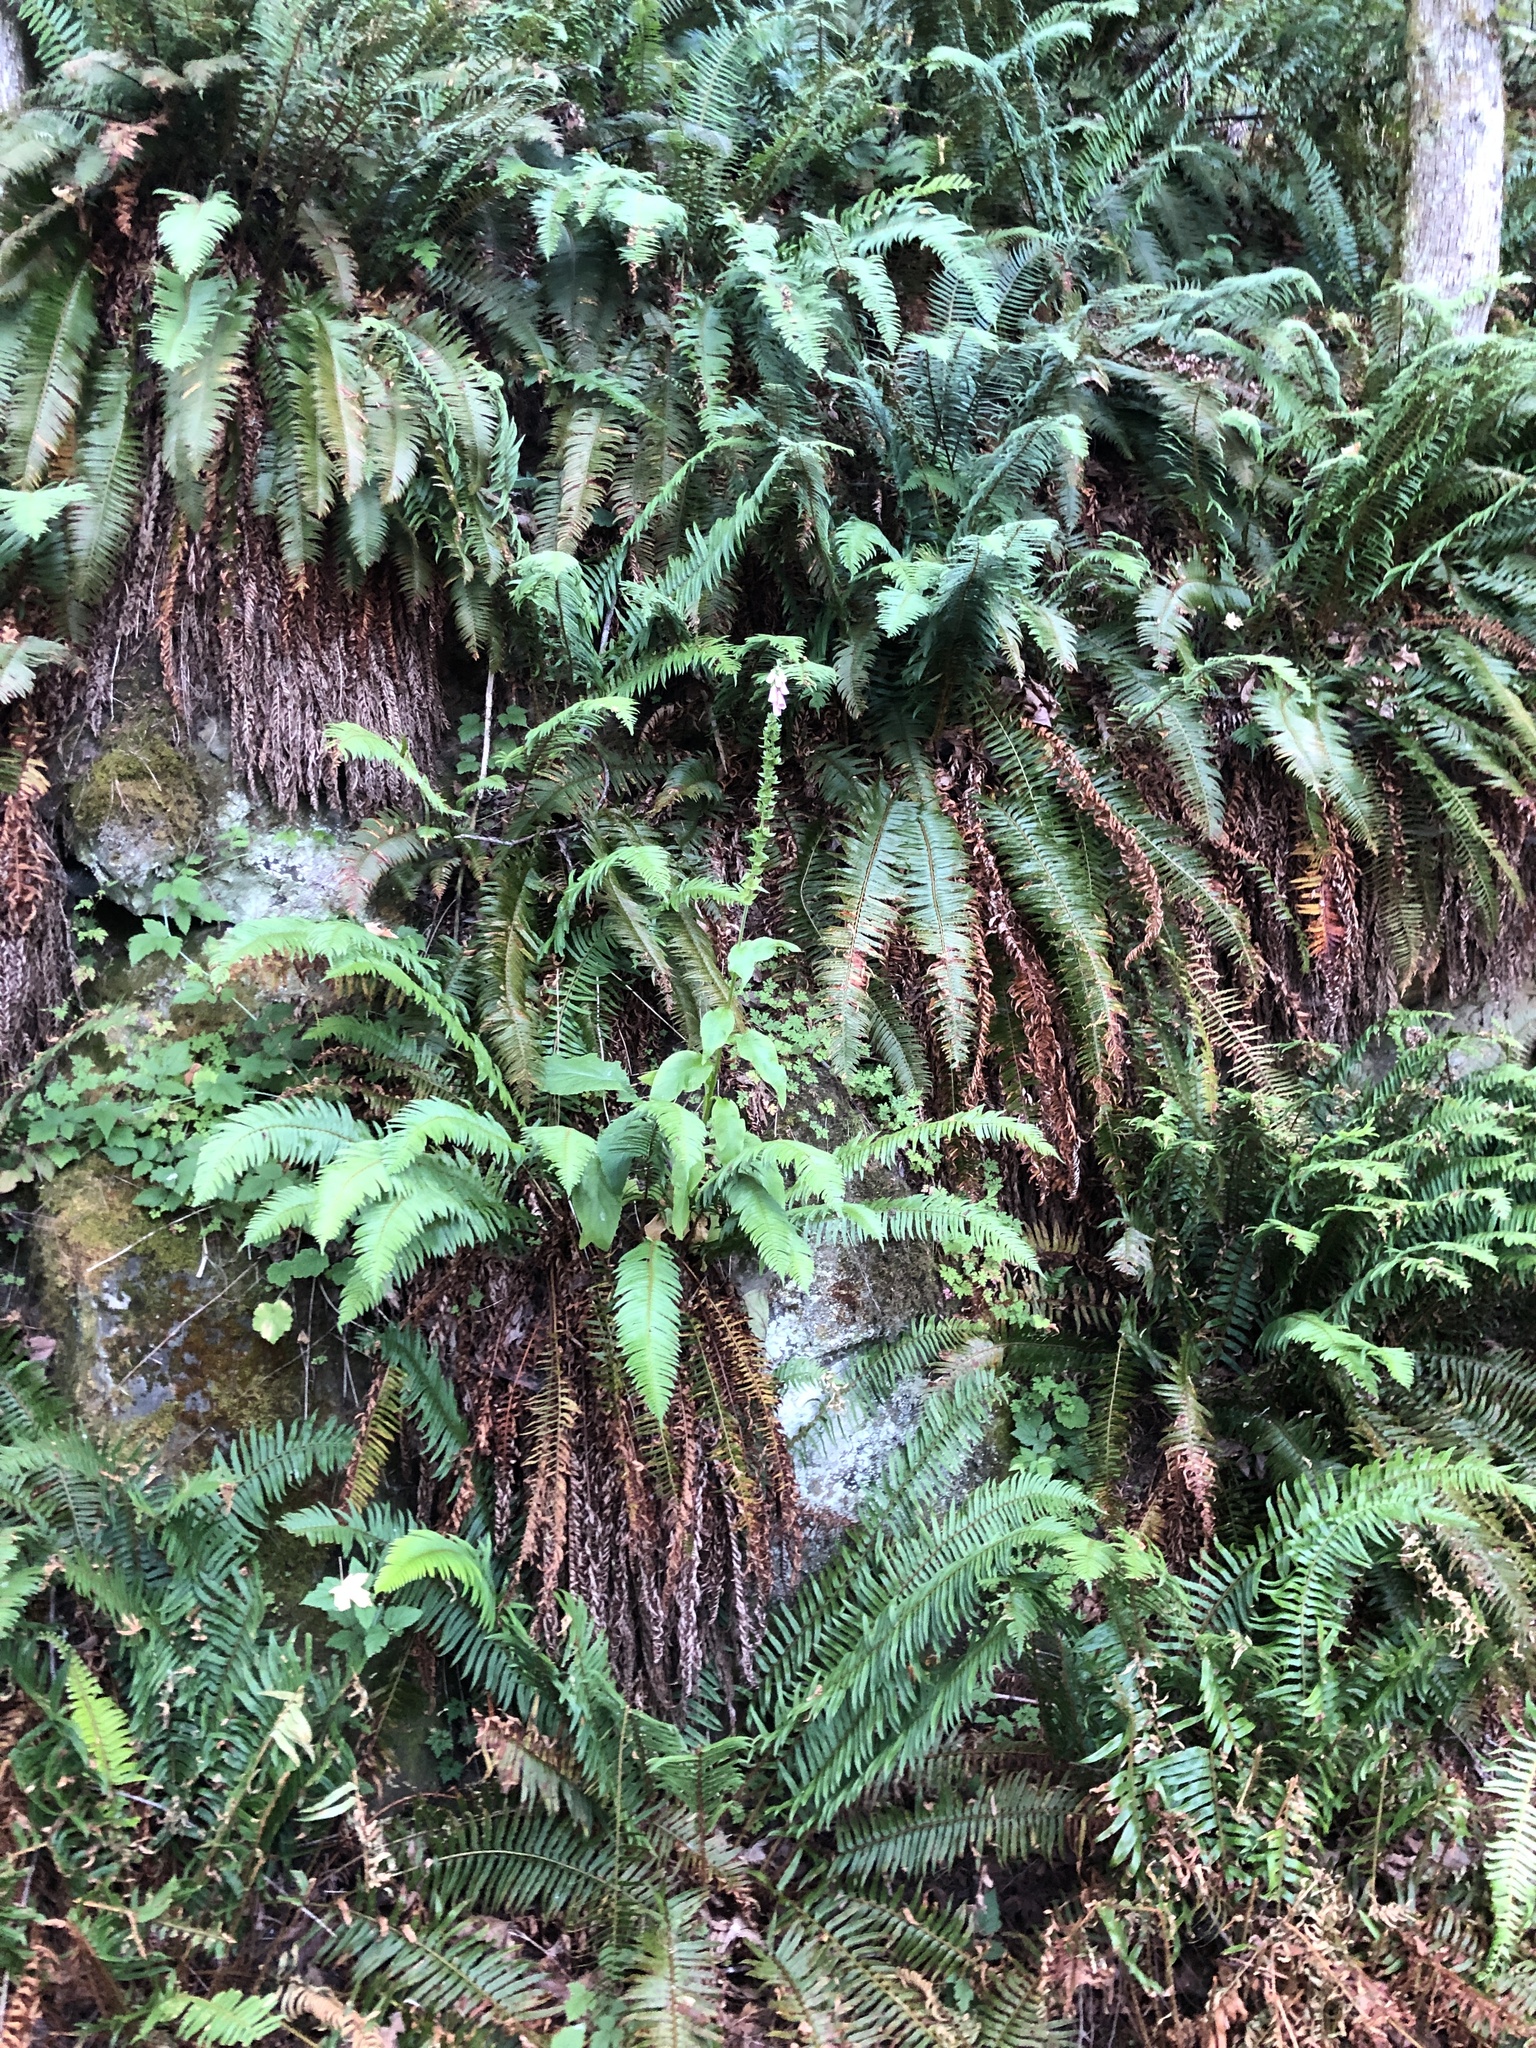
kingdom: Plantae
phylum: Tracheophyta
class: Magnoliopsida
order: Lamiales
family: Plantaginaceae
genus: Digitalis
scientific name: Digitalis purpurea
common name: Foxglove
